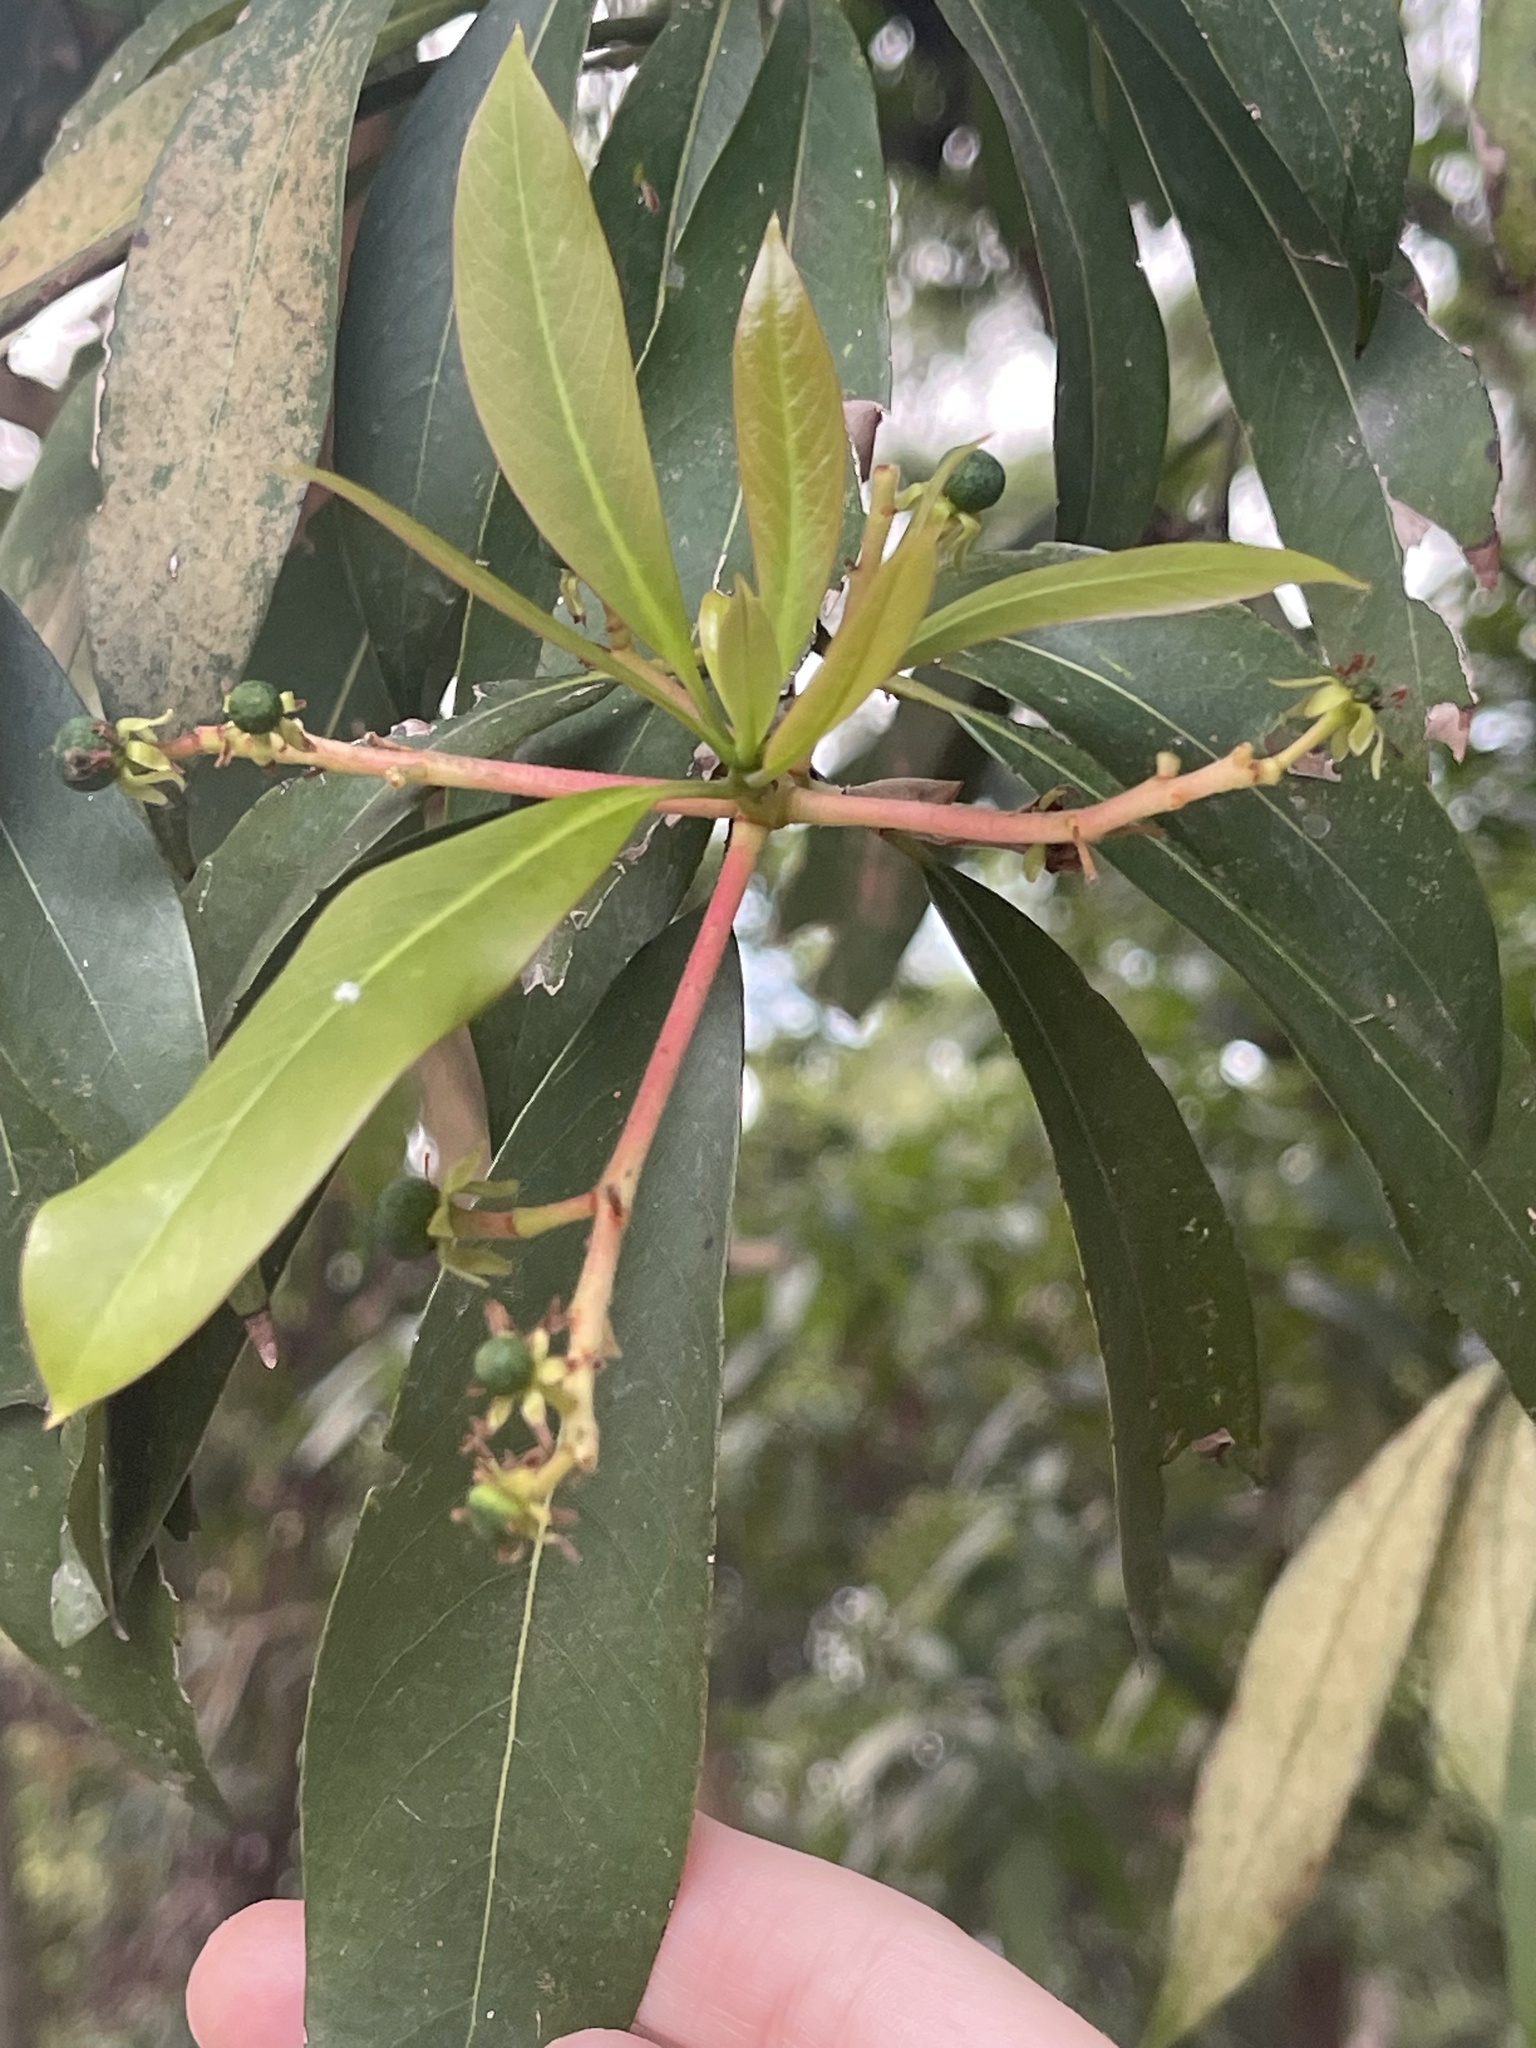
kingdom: Plantae
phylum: Tracheophyta
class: Magnoliopsida
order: Laurales
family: Lauraceae
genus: Machilus
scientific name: Machilus pauhoi
